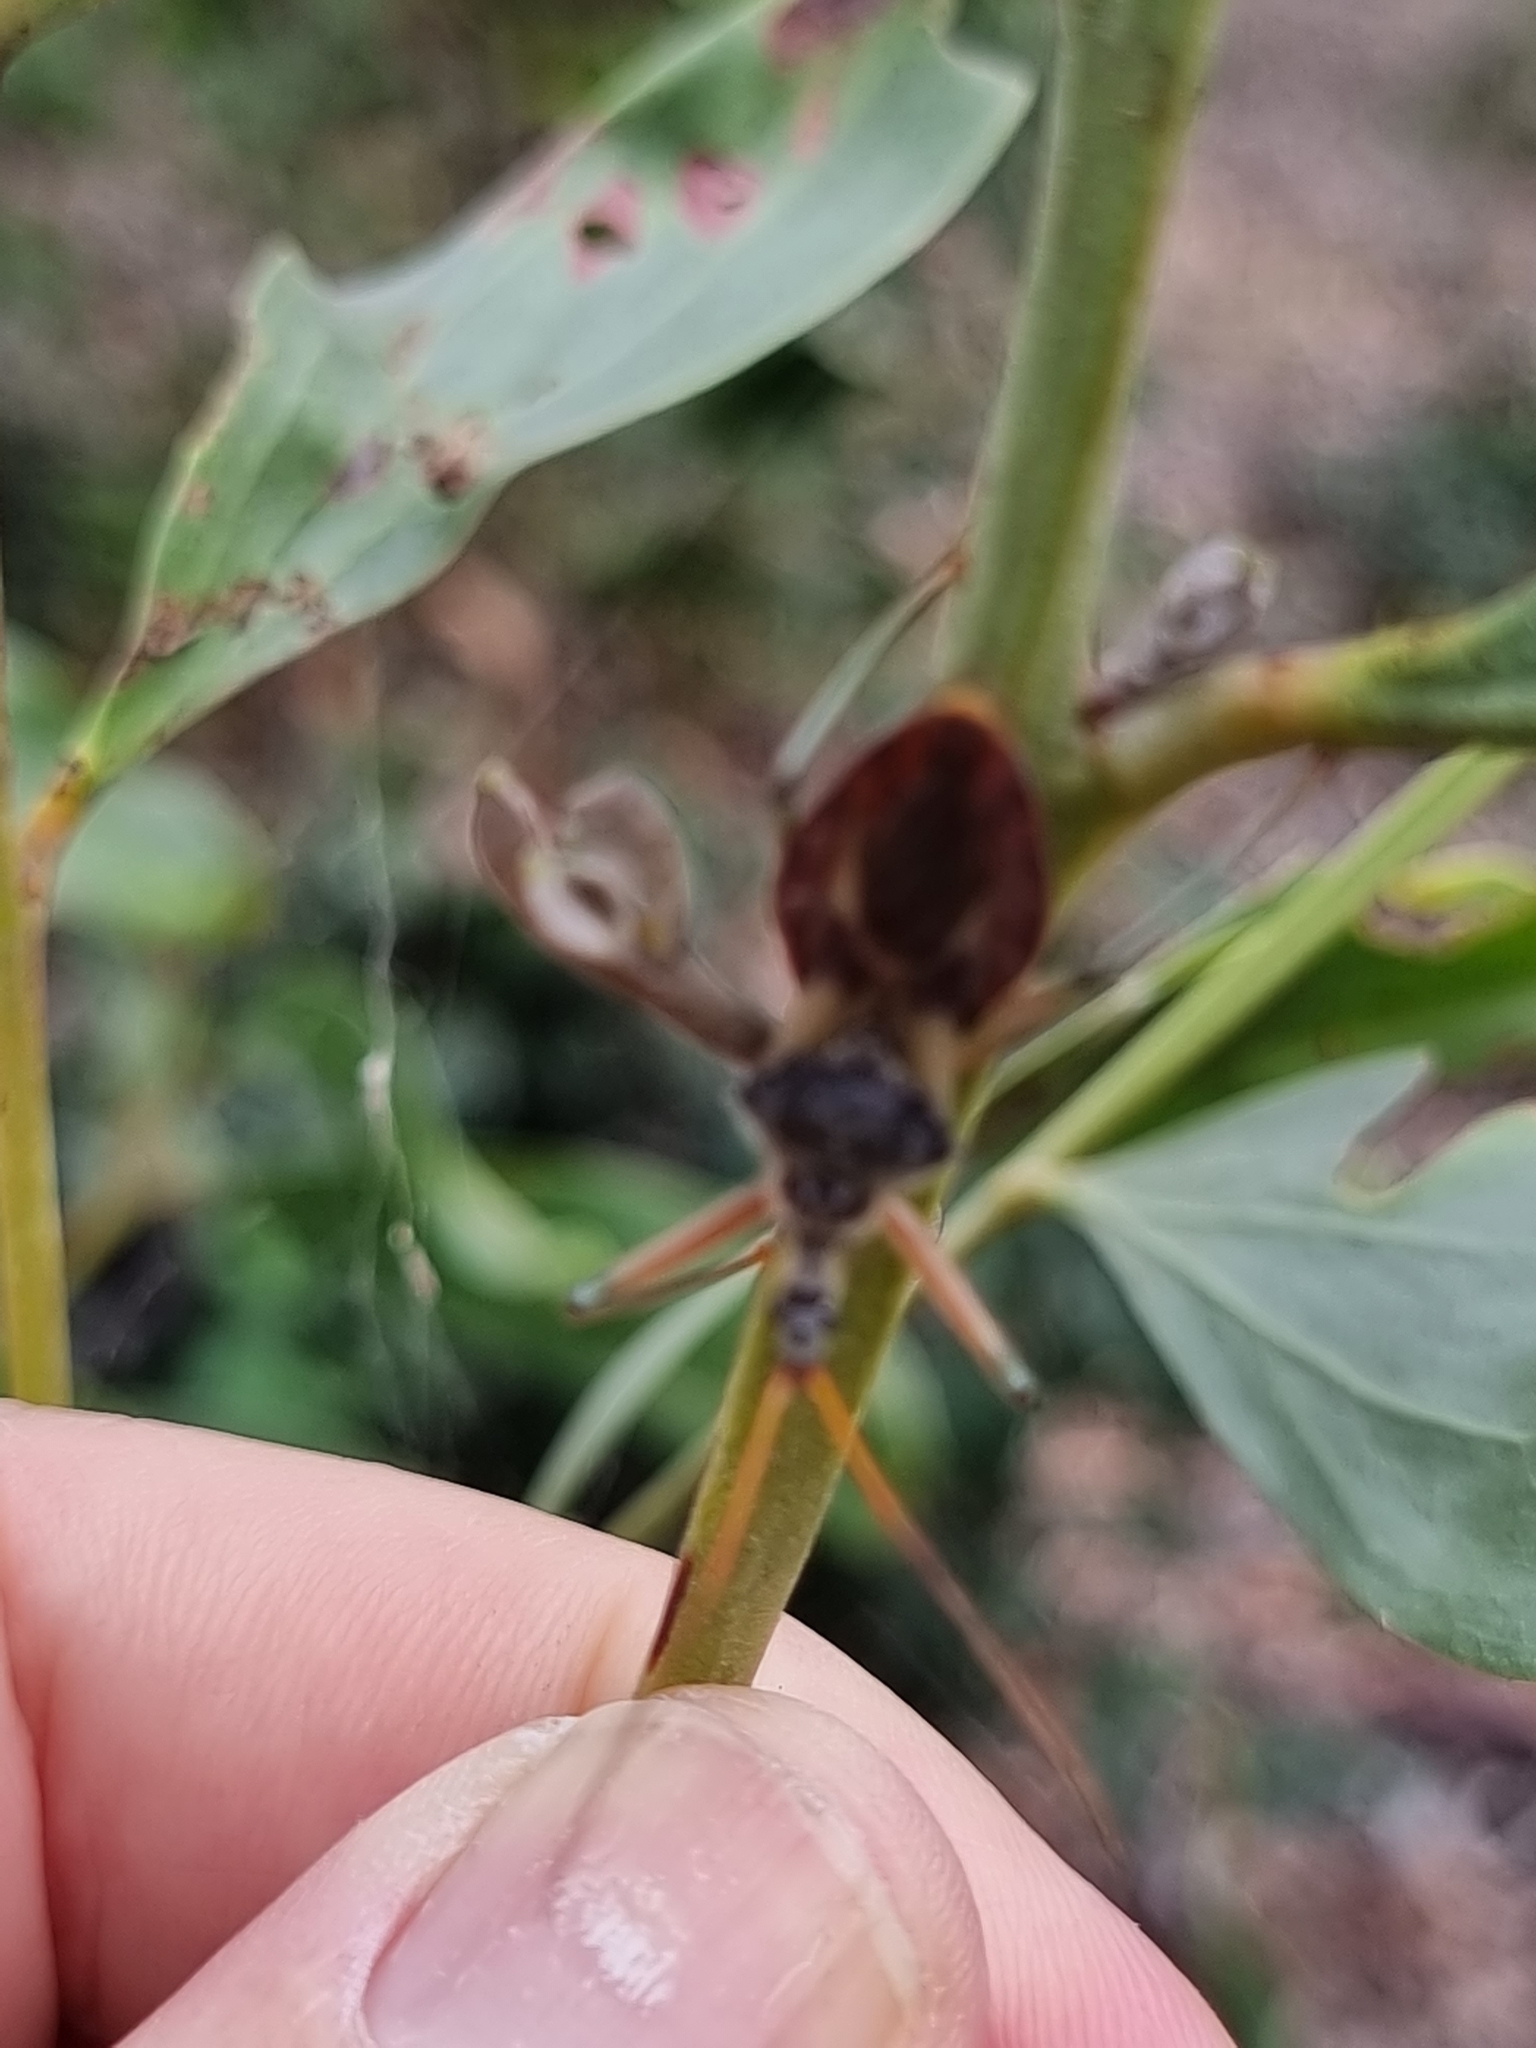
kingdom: Animalia
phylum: Arthropoda
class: Insecta
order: Hemiptera
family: Reduviidae
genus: Pristhesancus
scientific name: Pristhesancus plagipennis
